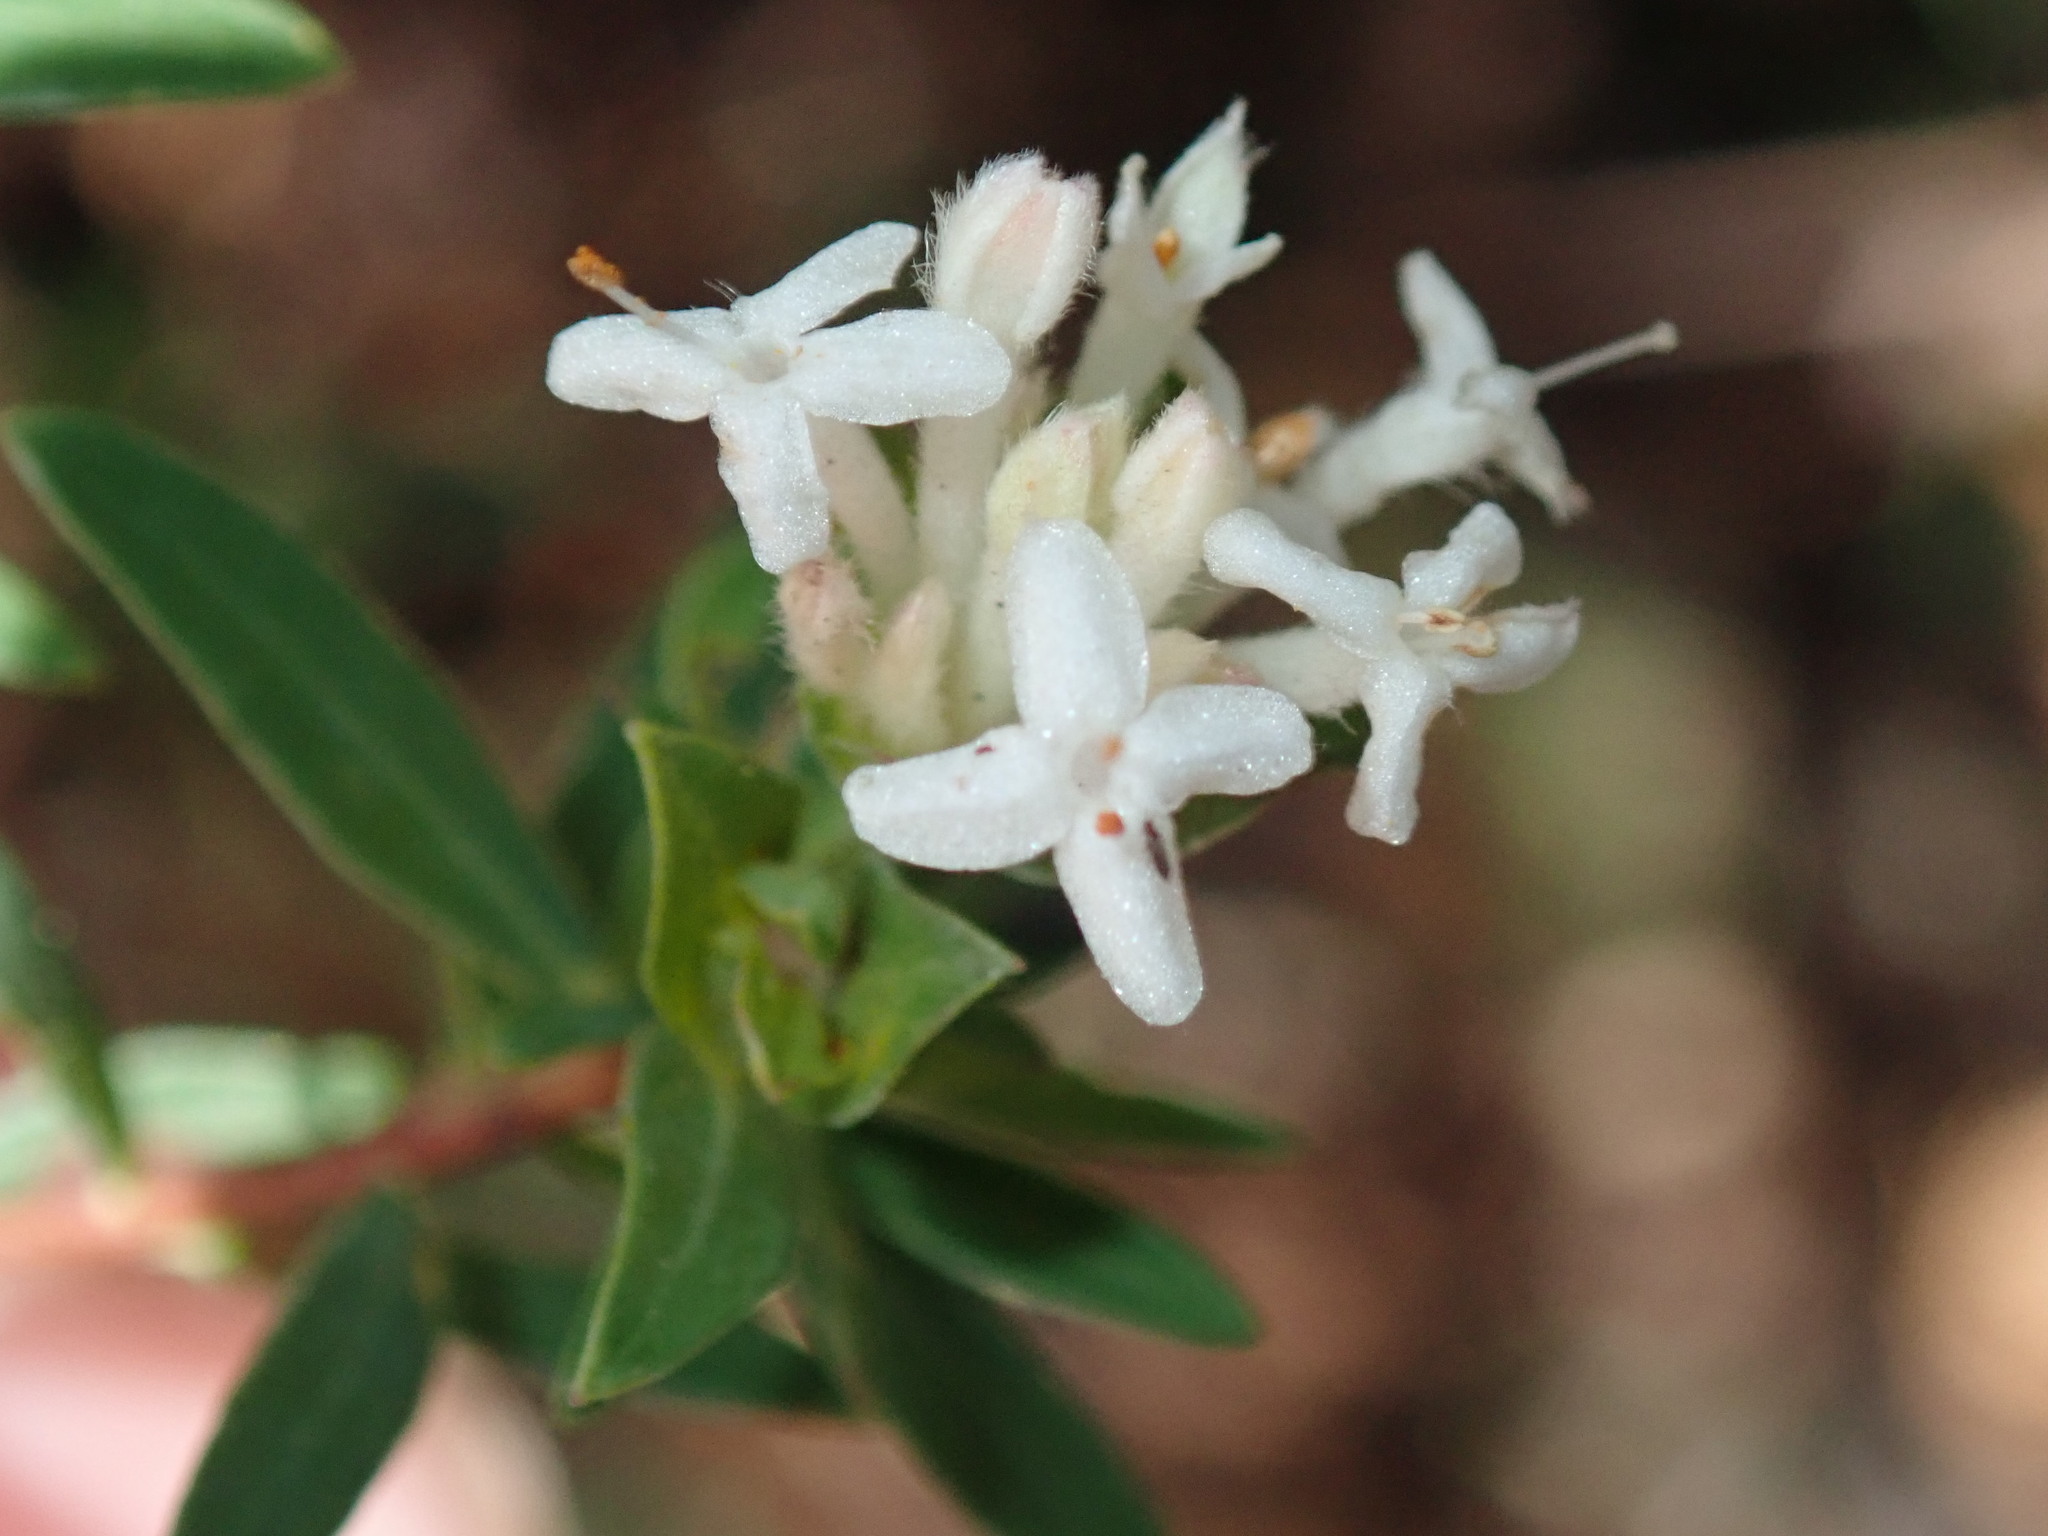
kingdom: Plantae
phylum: Tracheophyta
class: Magnoliopsida
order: Malvales
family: Thymelaeaceae
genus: Pimelea
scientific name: Pimelea linifolia
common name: Queen-of-the-bush
